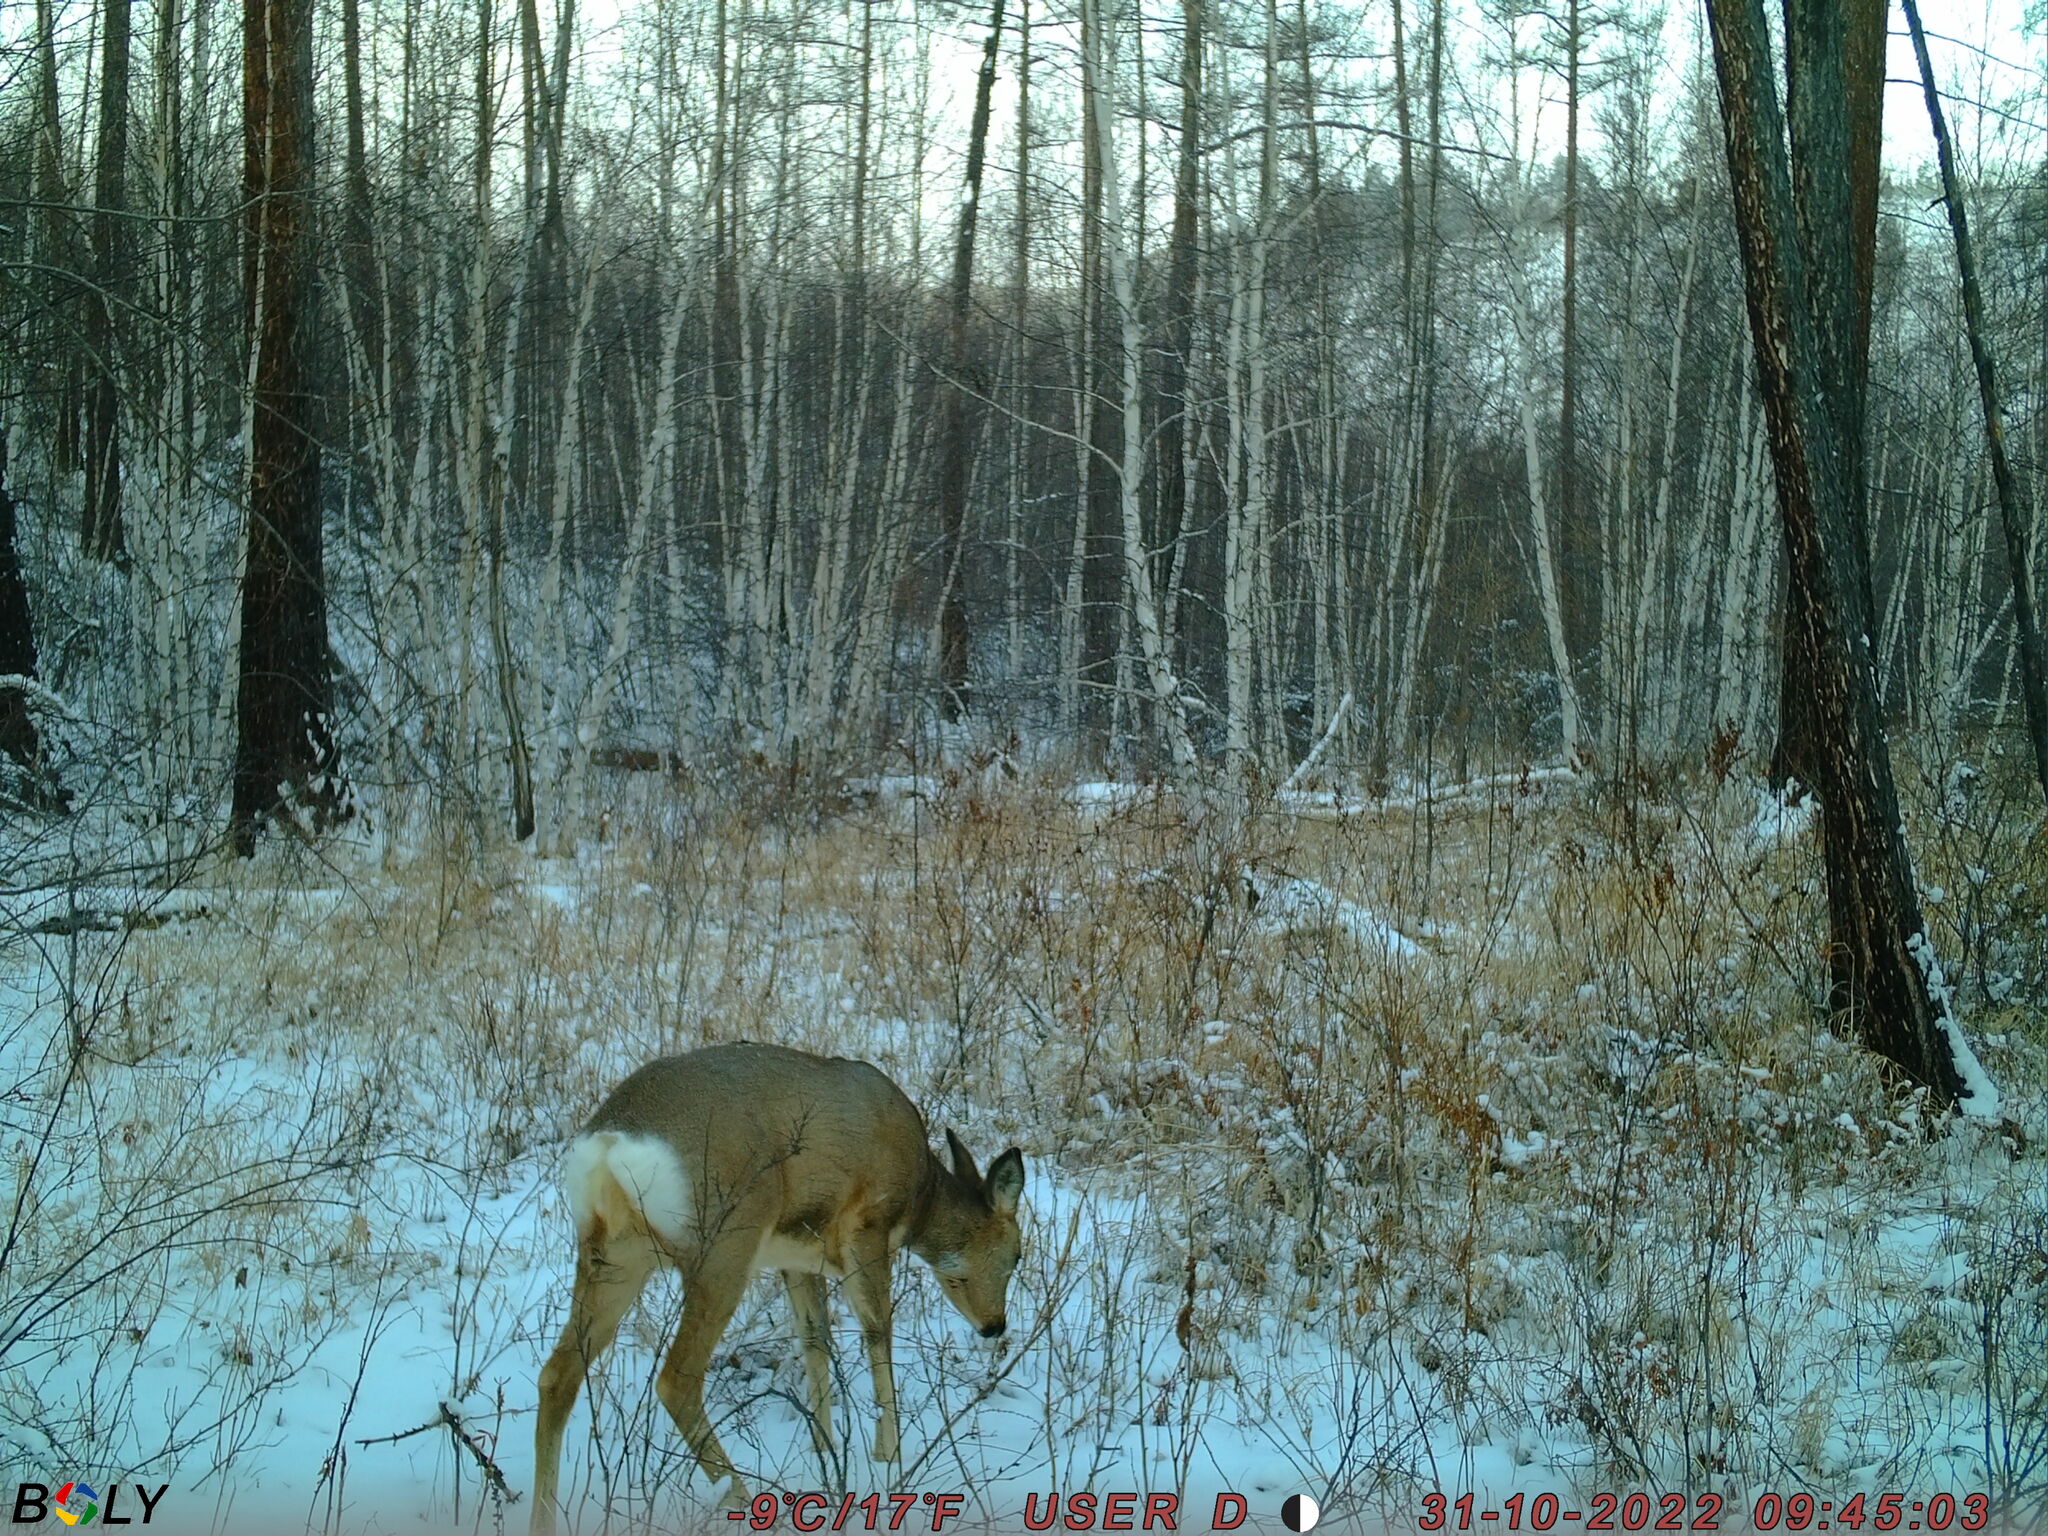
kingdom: Animalia
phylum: Chordata
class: Mammalia
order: Artiodactyla
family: Cervidae
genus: Capreolus
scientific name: Capreolus pygargus
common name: Siberian roe
